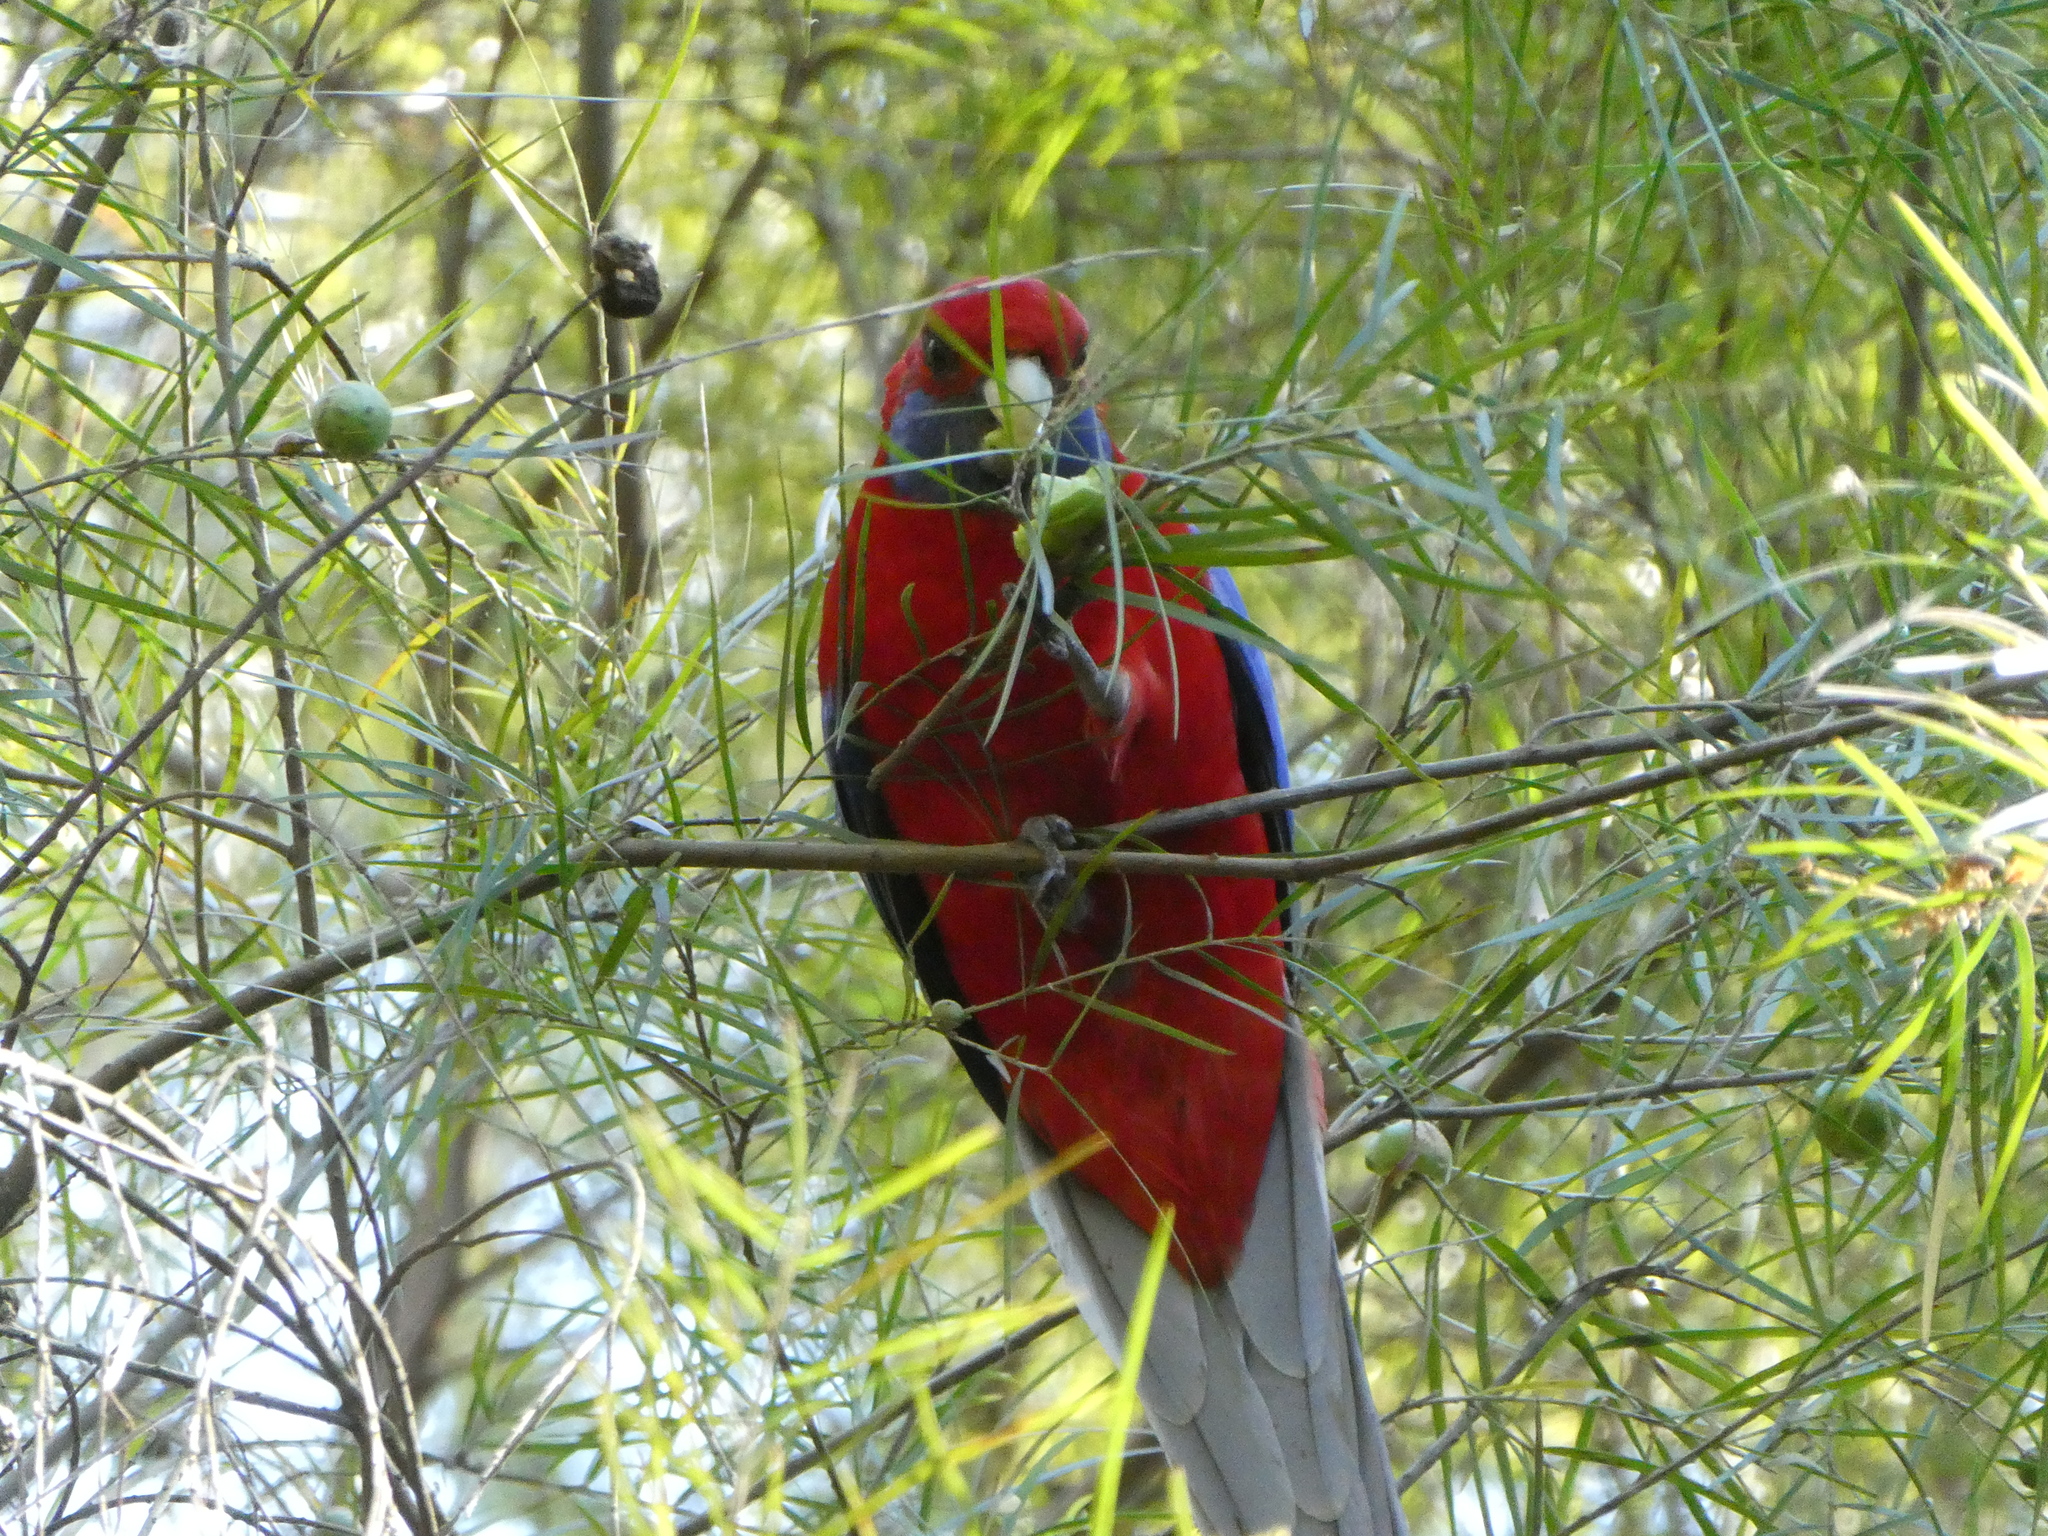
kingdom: Animalia
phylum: Chordata
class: Aves
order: Psittaciformes
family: Psittacidae
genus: Platycercus
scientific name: Platycercus elegans
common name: Crimson rosella
